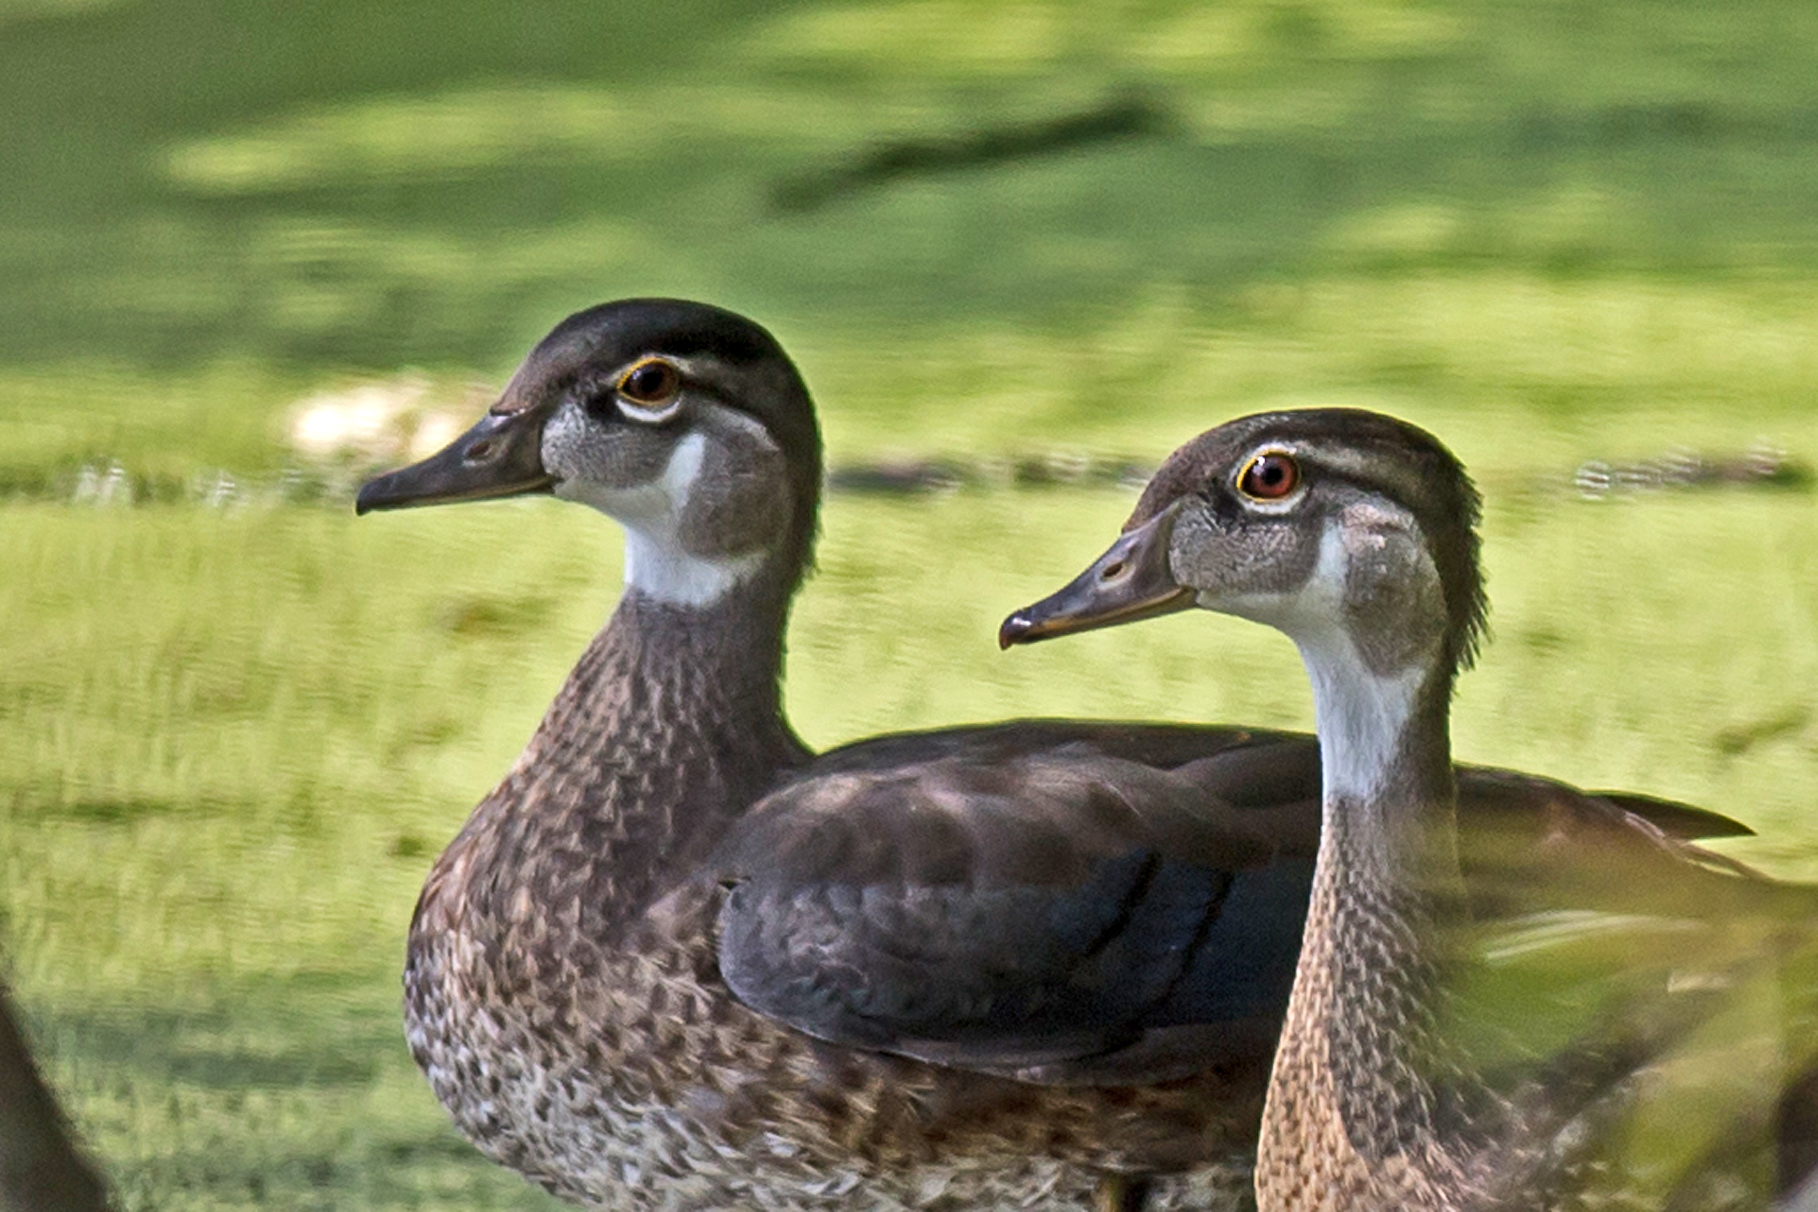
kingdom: Animalia
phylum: Chordata
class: Aves
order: Anseriformes
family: Anatidae
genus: Aix
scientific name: Aix sponsa
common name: Wood duck
